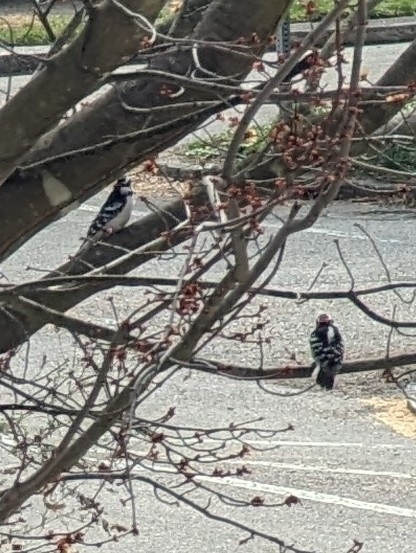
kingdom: Animalia
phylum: Chordata
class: Aves
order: Piciformes
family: Picidae
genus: Dryobates
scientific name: Dryobates pubescens
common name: Downy woodpecker
